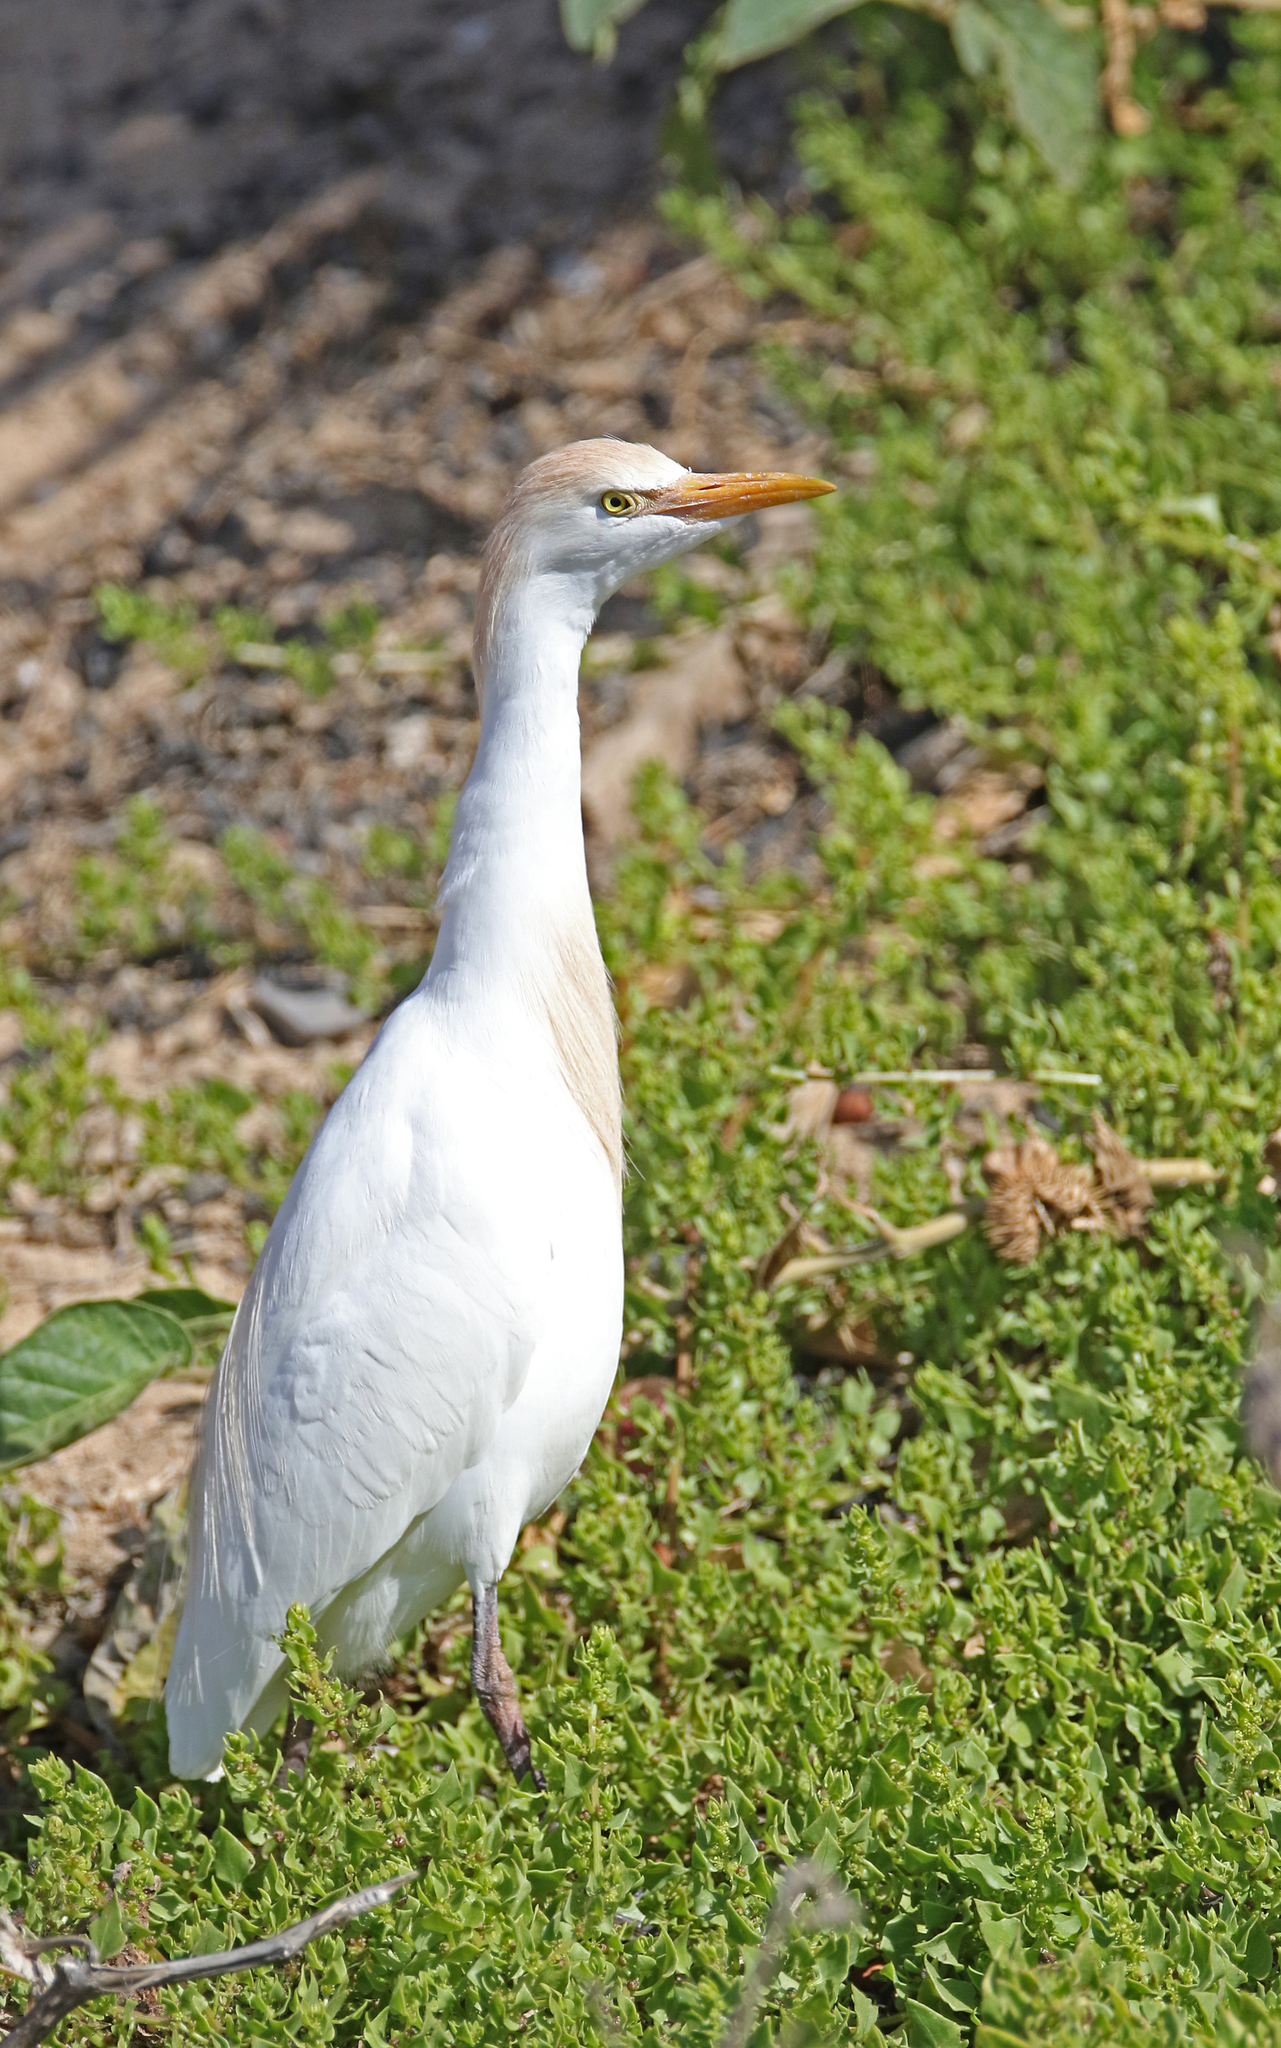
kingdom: Animalia
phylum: Chordata
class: Aves
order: Pelecaniformes
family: Ardeidae
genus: Bubulcus
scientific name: Bubulcus ibis
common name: Cattle egret
